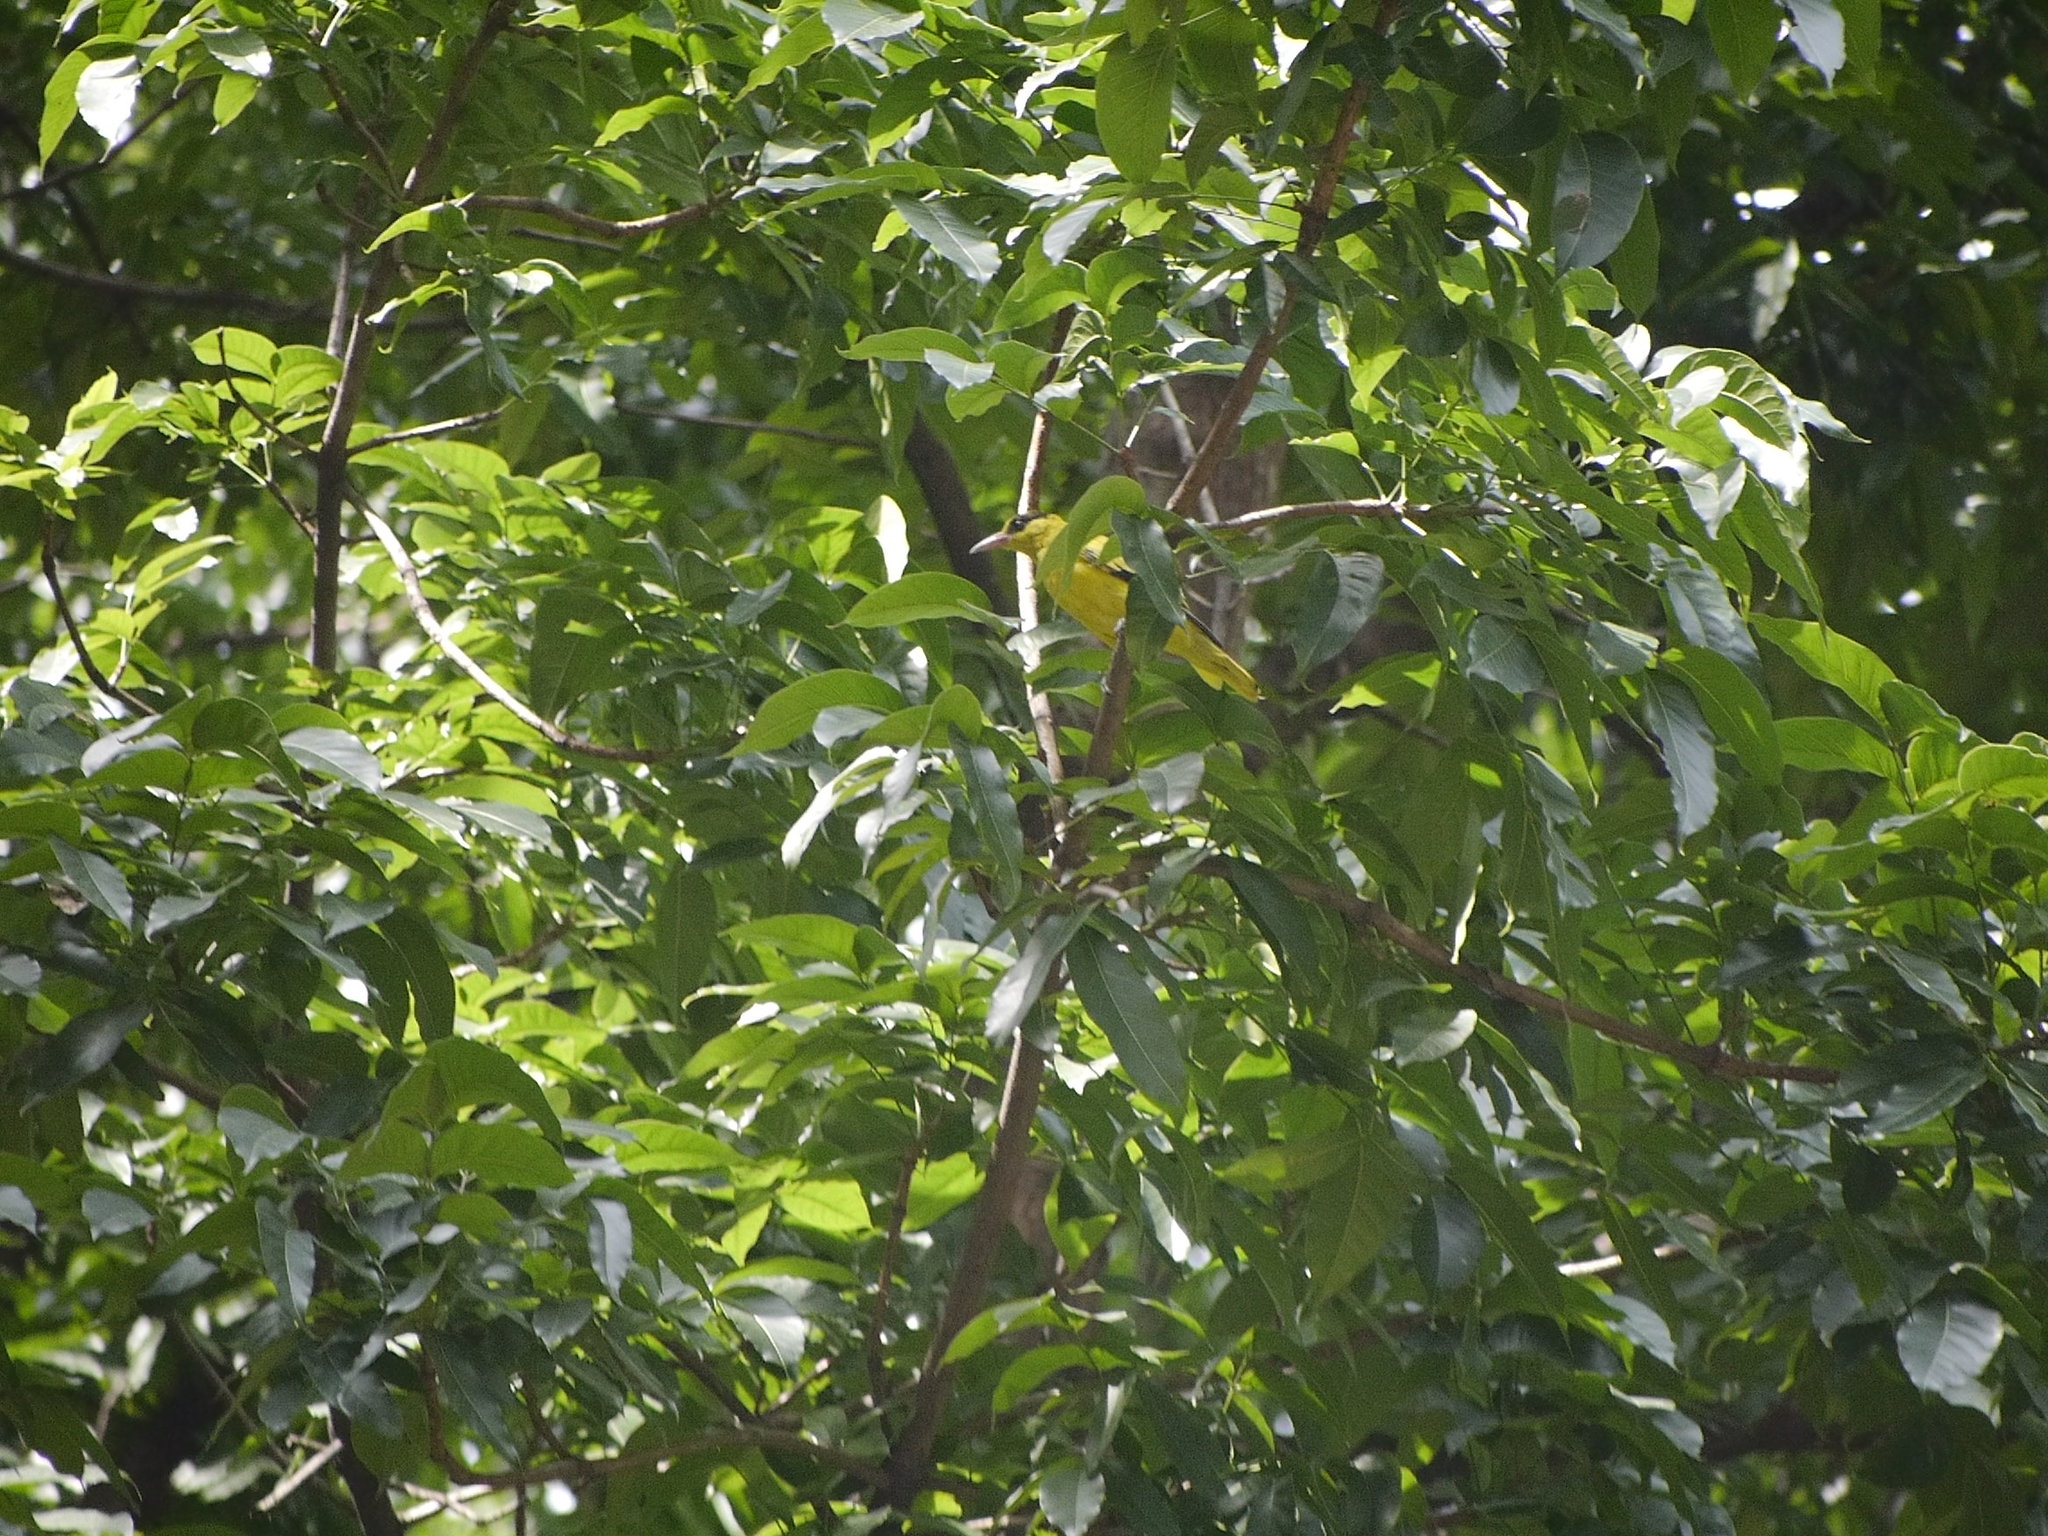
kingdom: Animalia
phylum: Chordata
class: Aves
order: Passeriformes
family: Oriolidae
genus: Oriolus
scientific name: Oriolus chinensis
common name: Black-naped oriole
